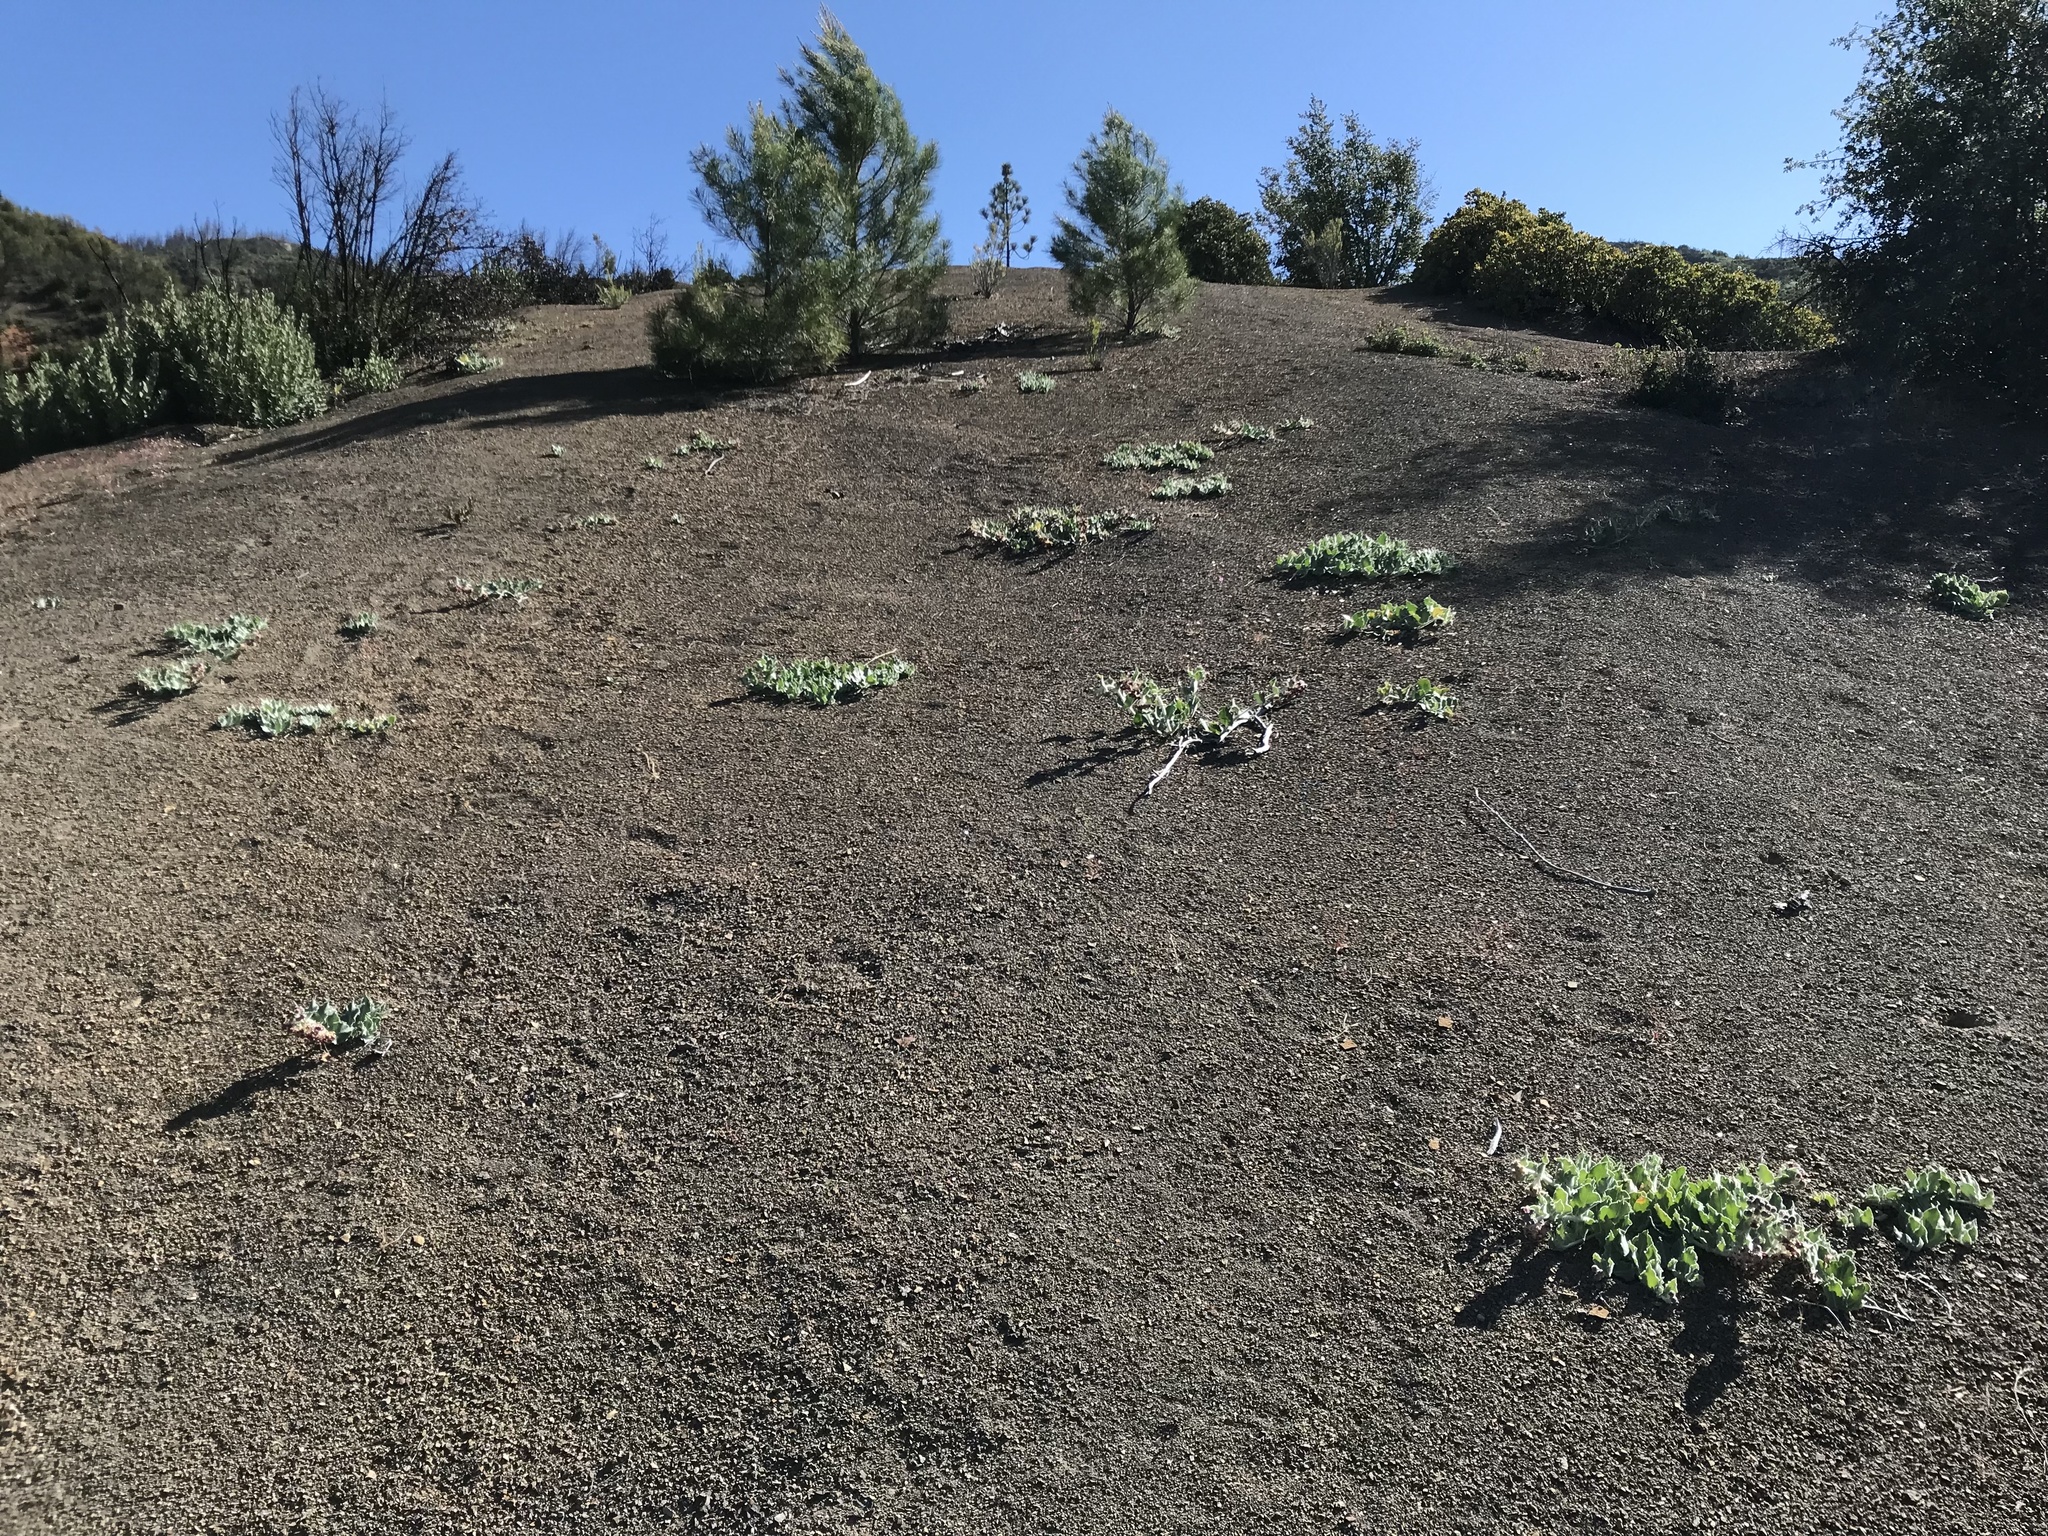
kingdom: Plantae
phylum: Tracheophyta
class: Magnoliopsida
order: Gentianales
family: Apocynaceae
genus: Asclepias
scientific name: Asclepias californica
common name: California milkweed
